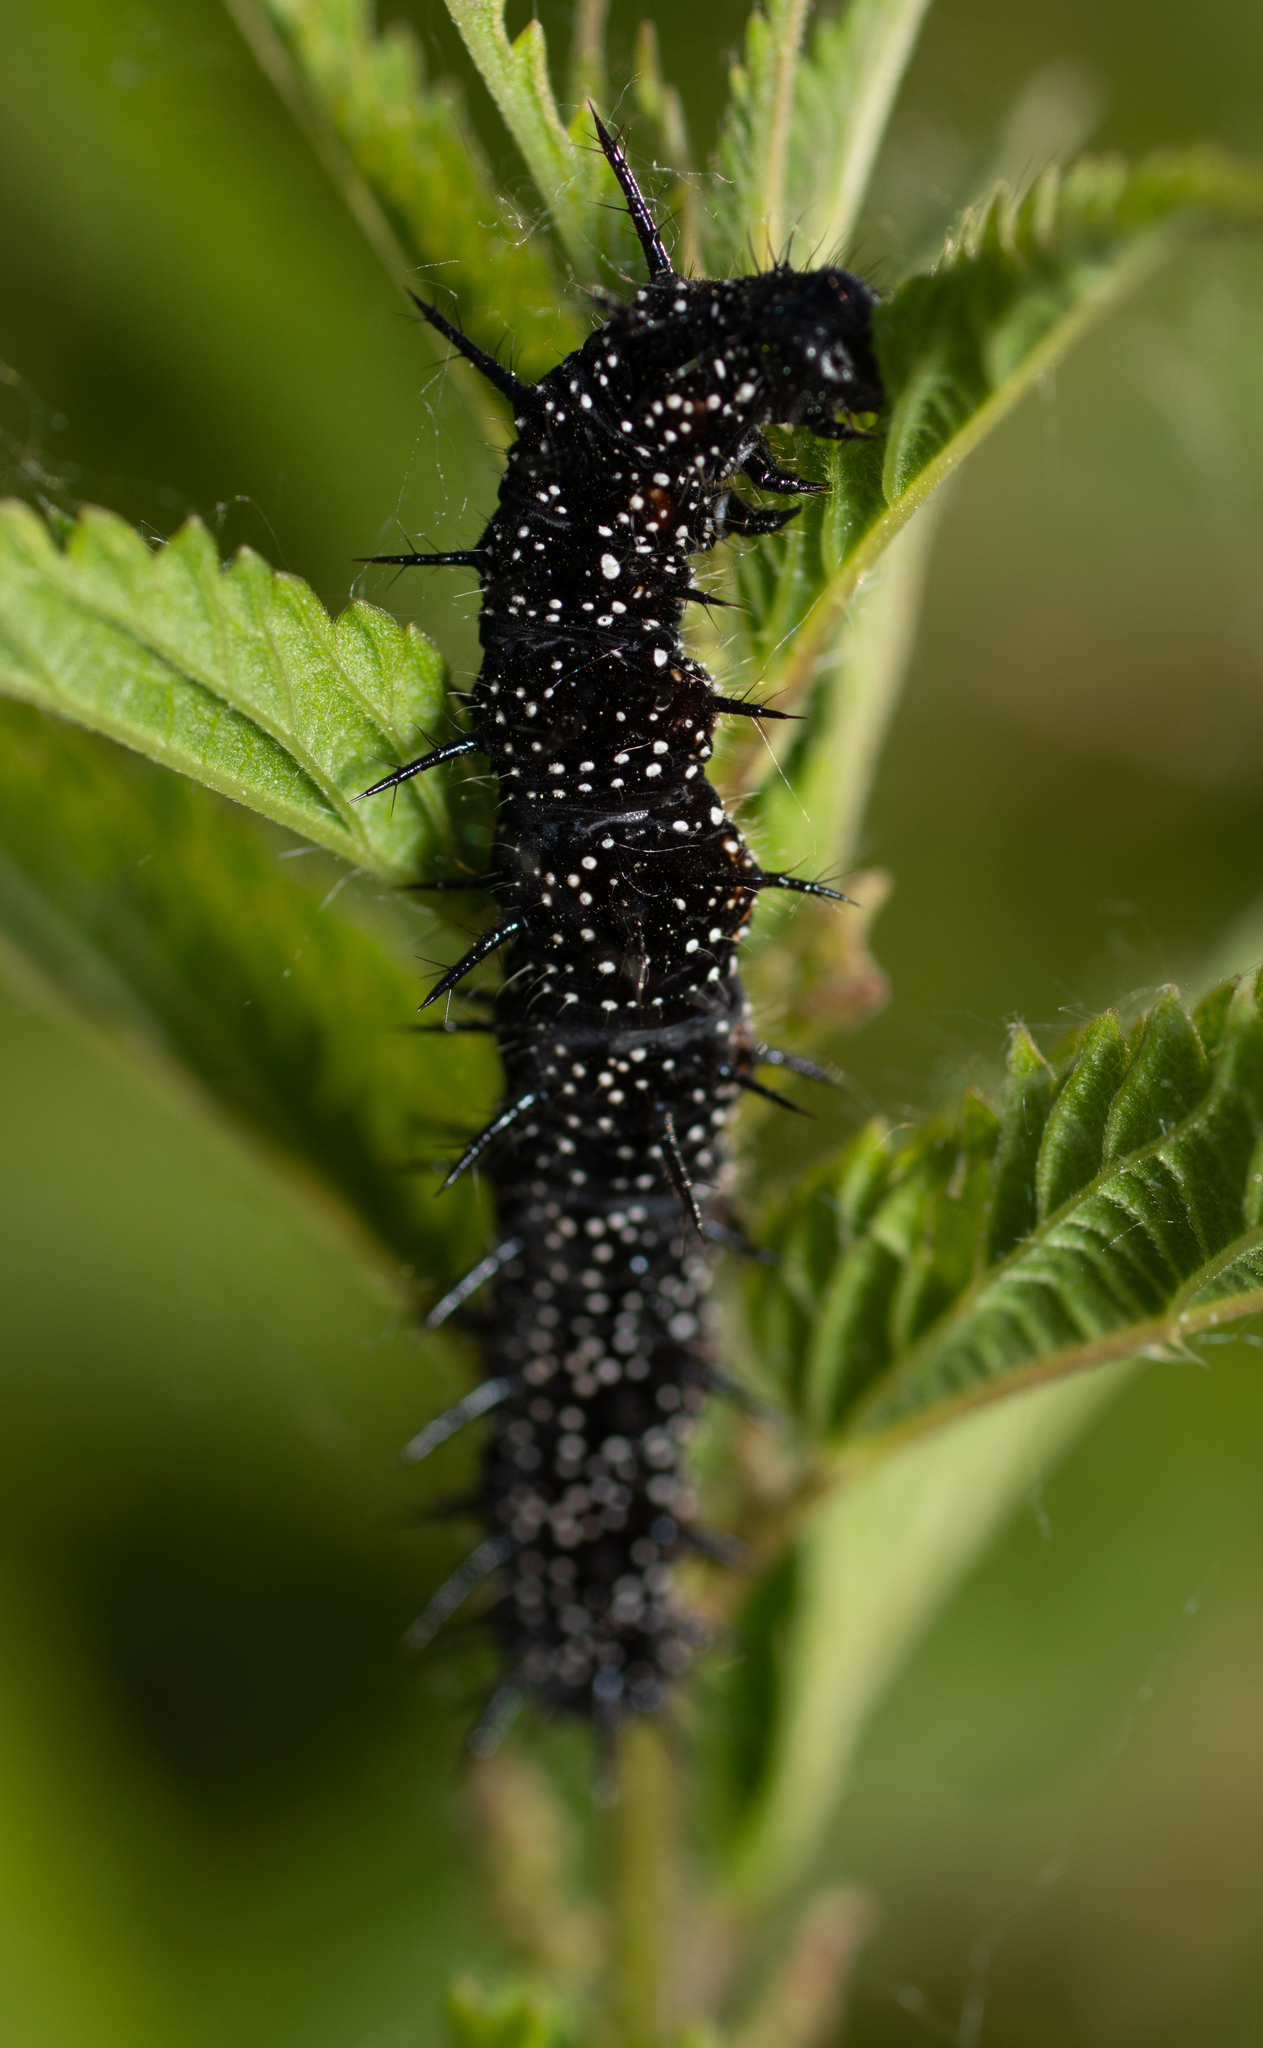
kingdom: Animalia
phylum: Arthropoda
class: Insecta
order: Lepidoptera
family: Nymphalidae
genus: Aglais
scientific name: Aglais io
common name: Peacock
